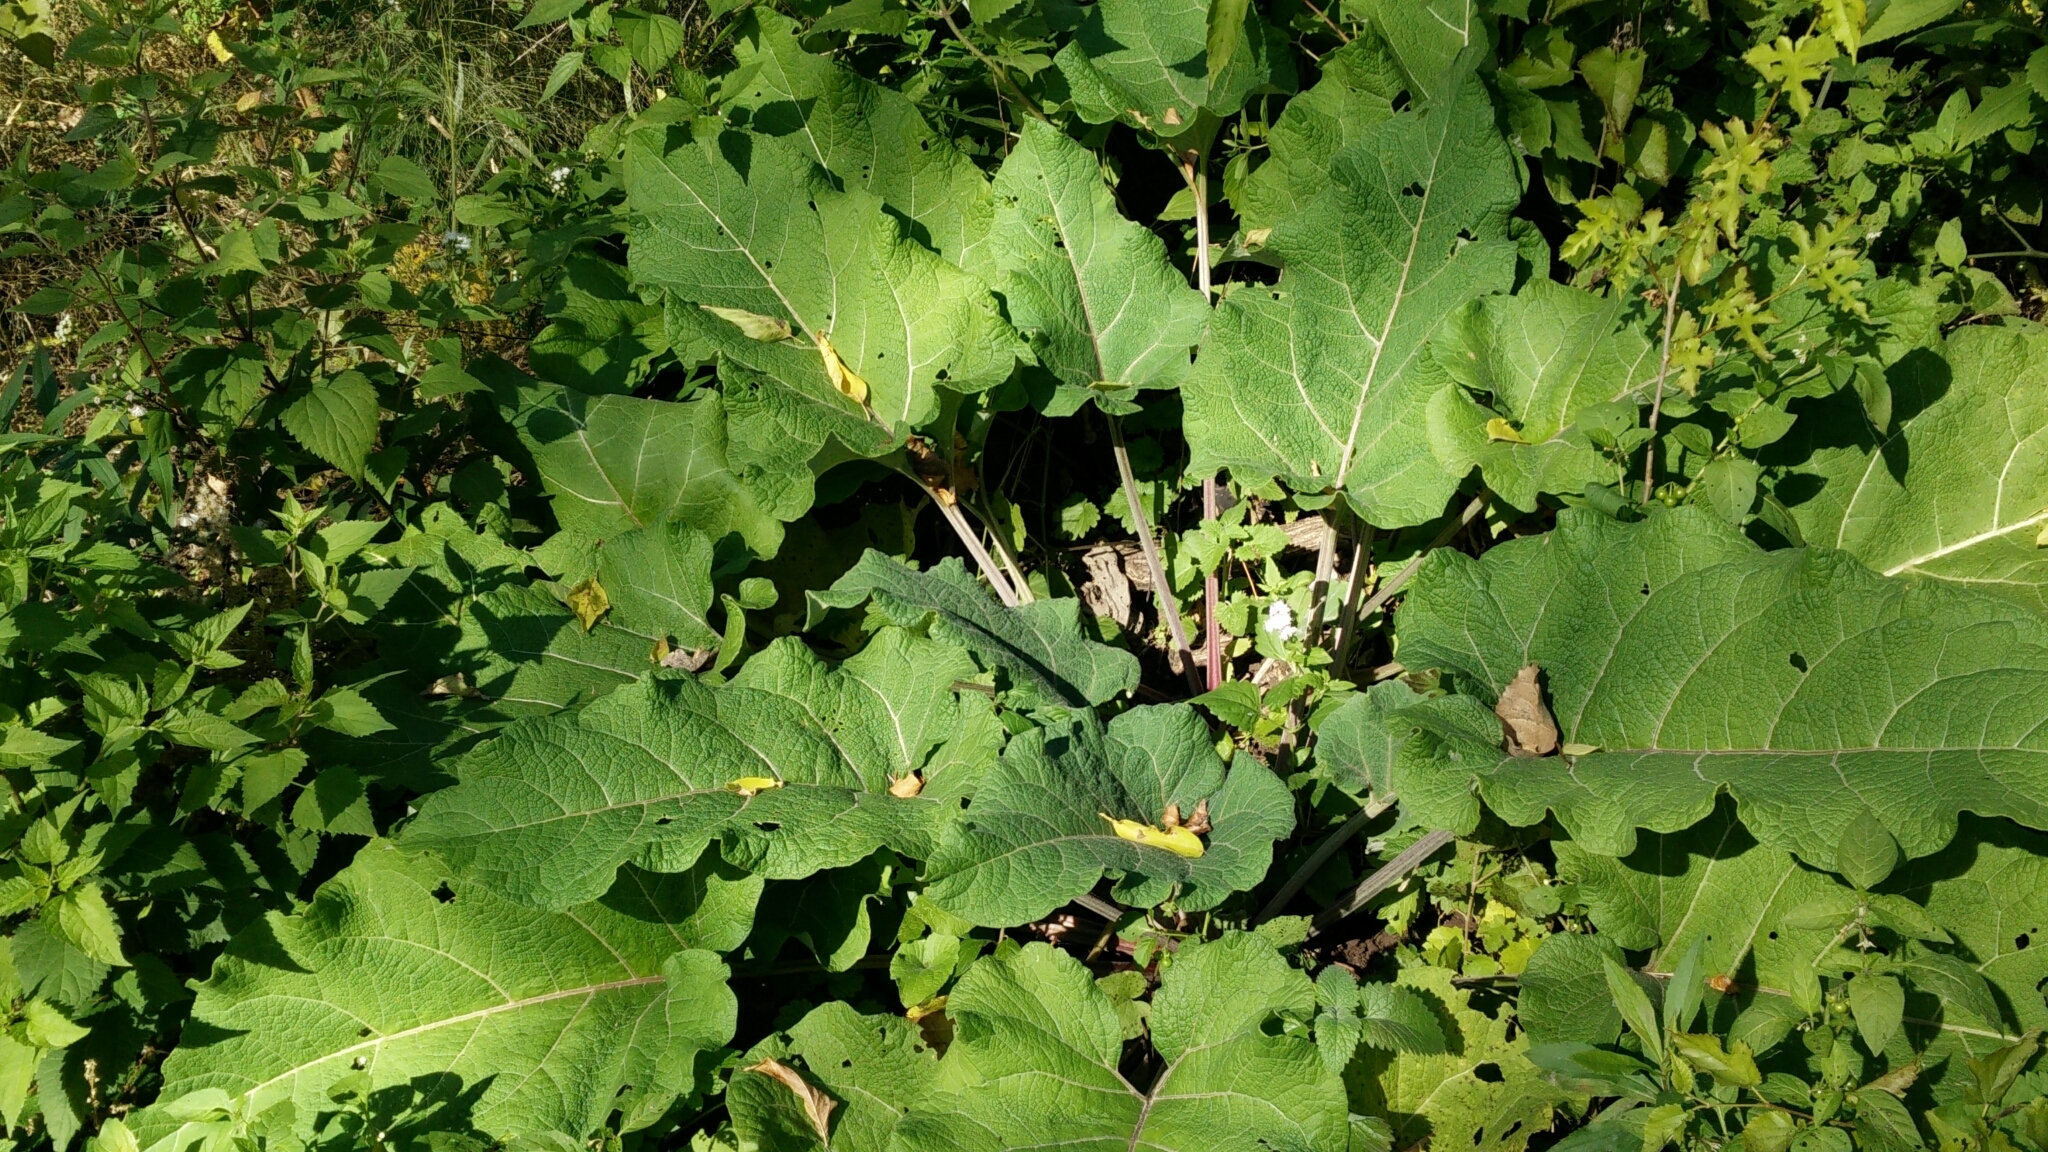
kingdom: Plantae
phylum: Tracheophyta
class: Magnoliopsida
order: Asterales
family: Asteraceae
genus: Arctium
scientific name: Arctium
